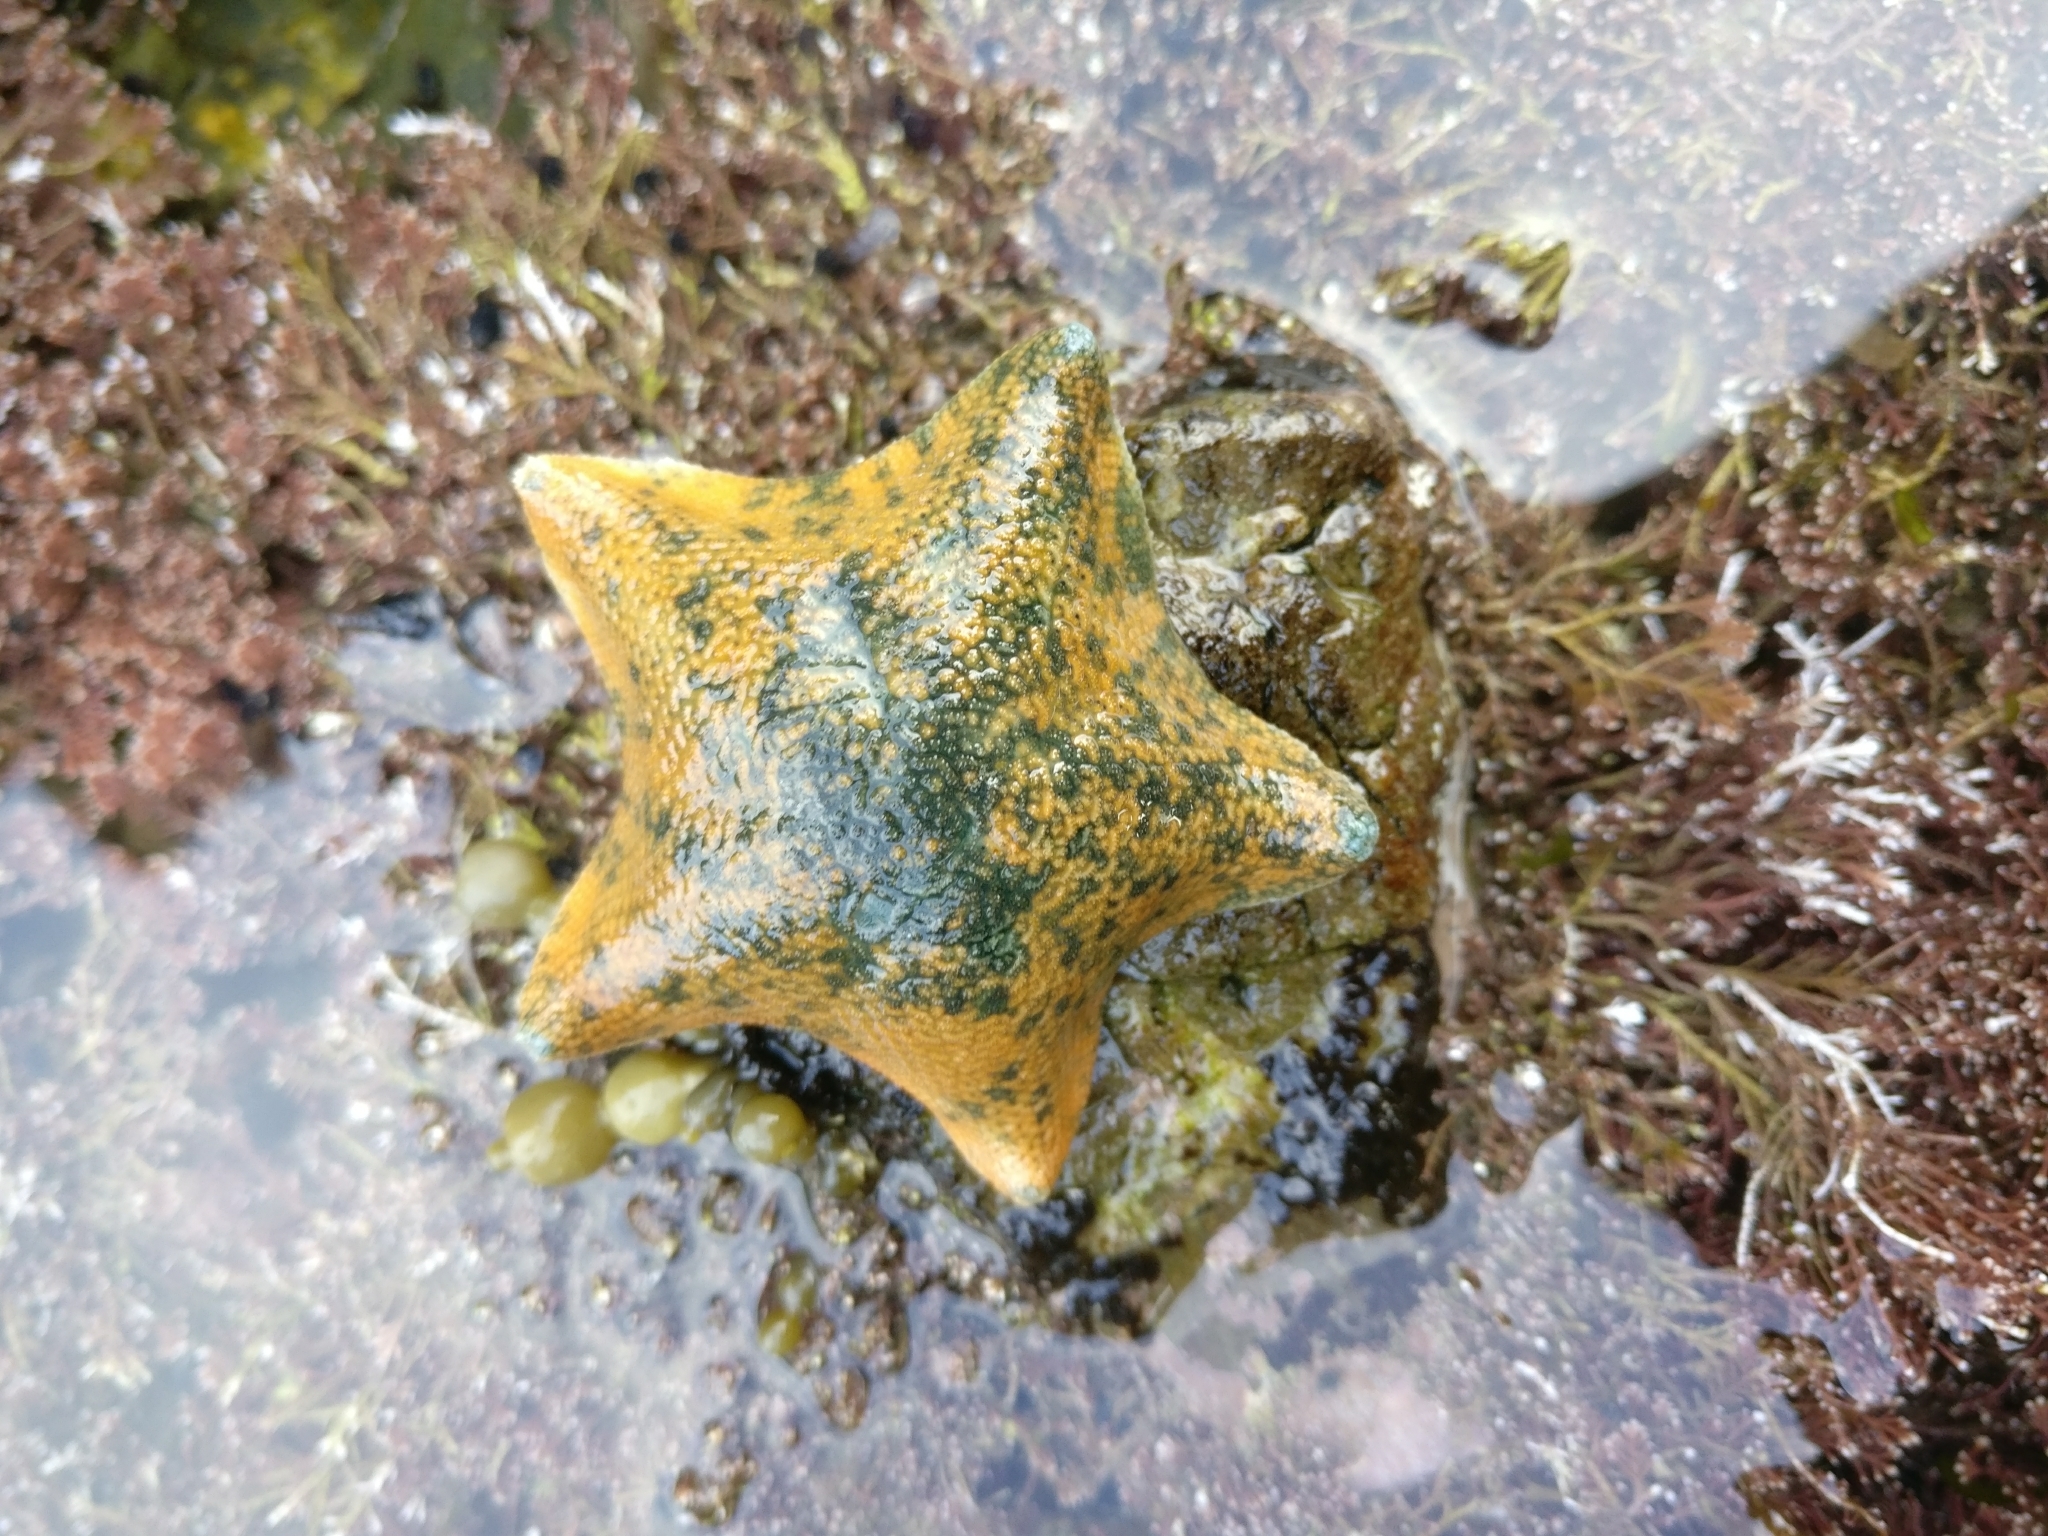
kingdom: Animalia
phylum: Echinodermata
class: Asteroidea
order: Valvatida
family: Asterinidae
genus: Patiriella
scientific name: Patiriella regularis
